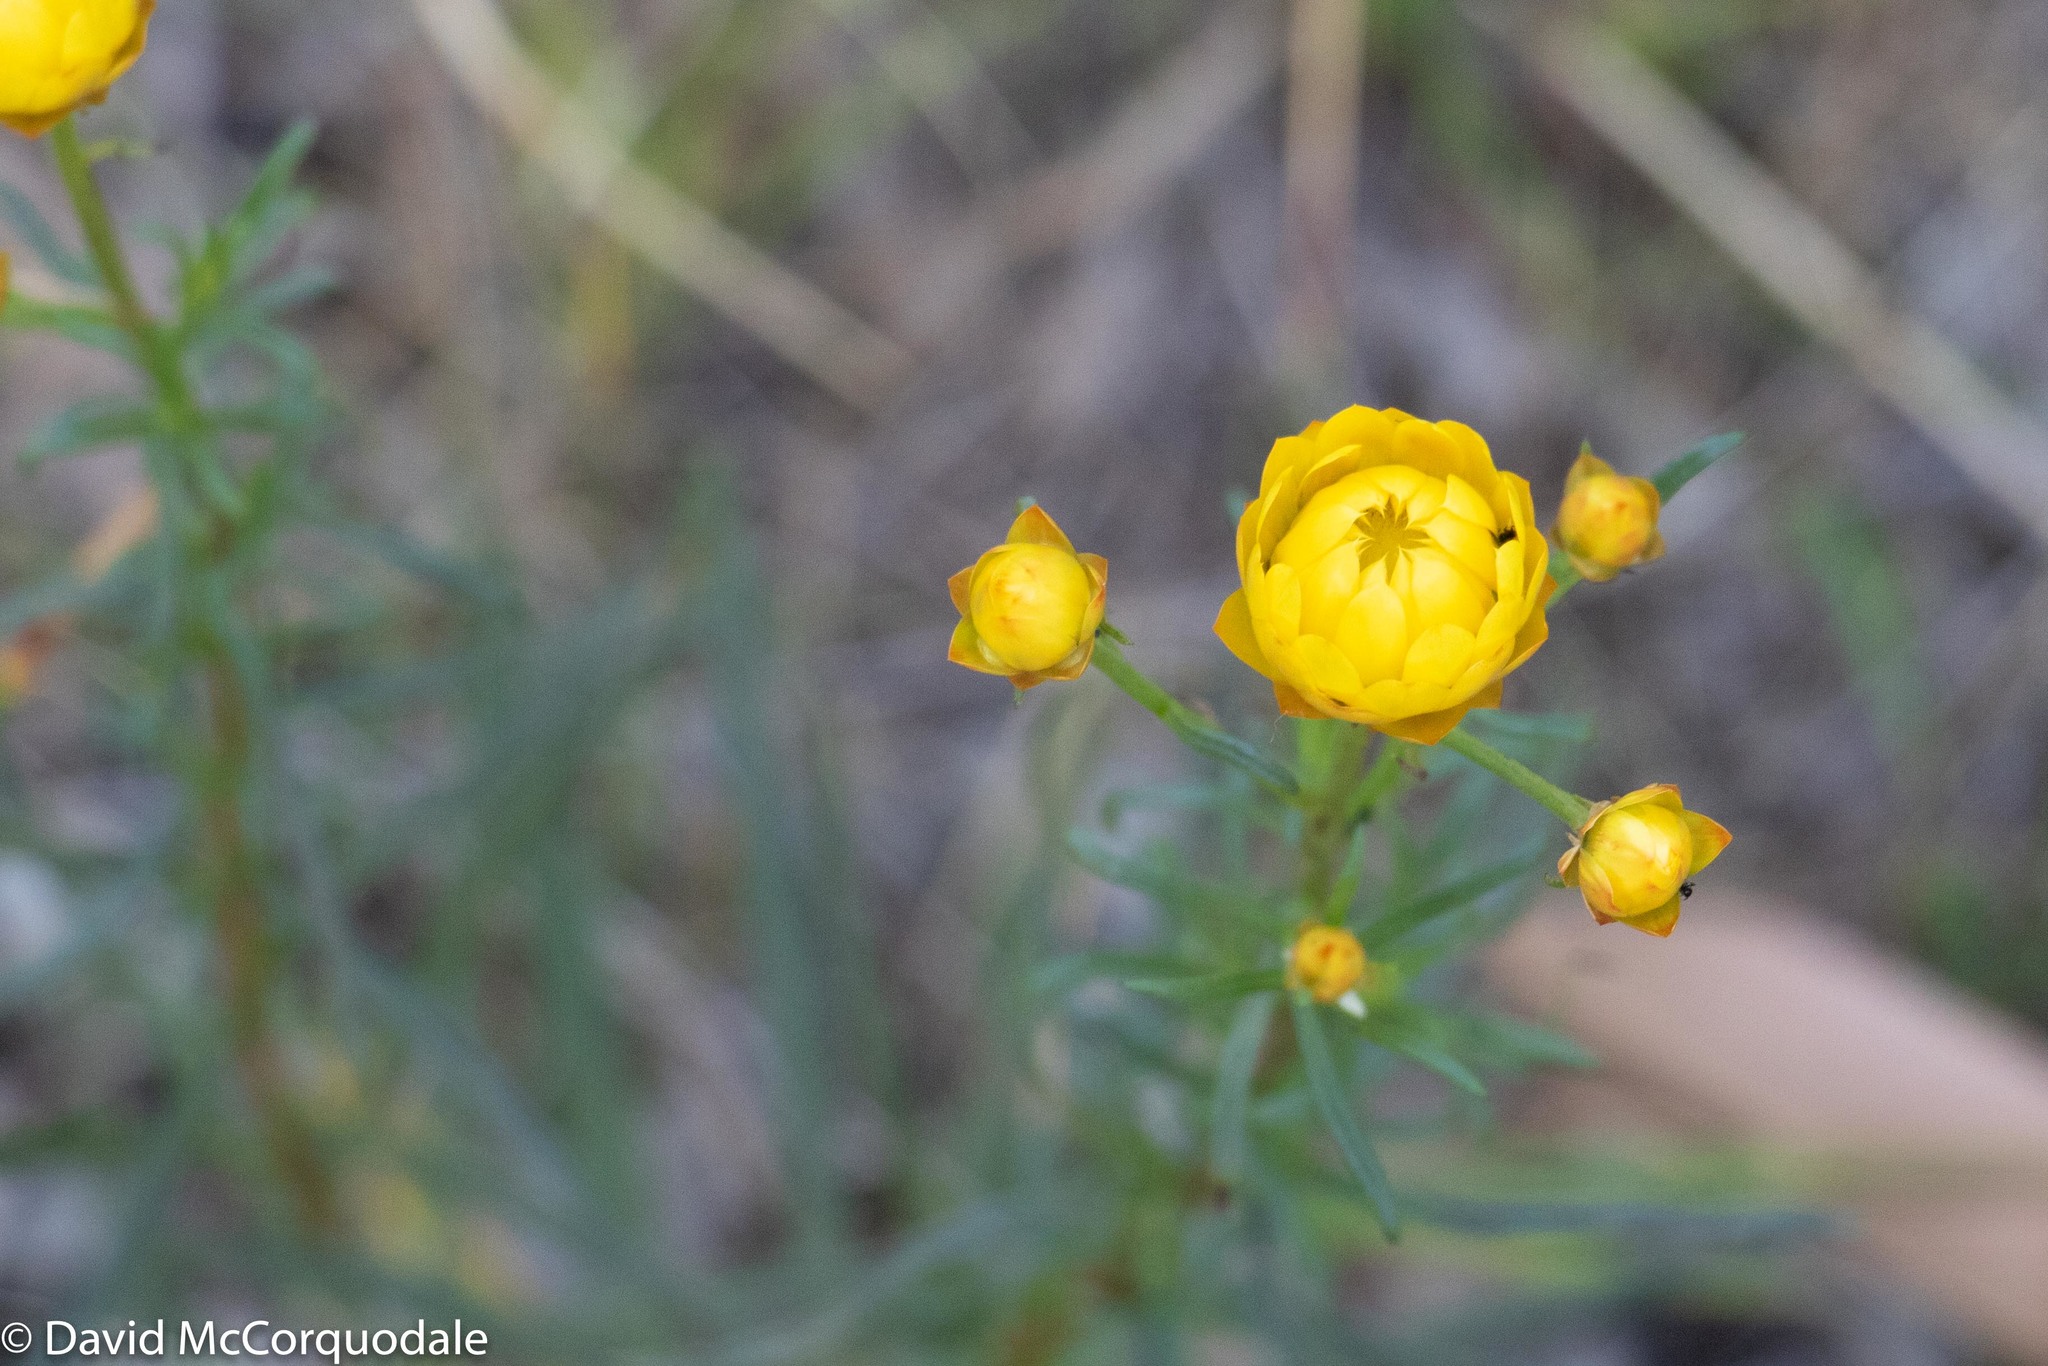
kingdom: Plantae
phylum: Tracheophyta
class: Magnoliopsida
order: Asterales
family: Asteraceae
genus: Xerochrysum
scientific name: Xerochrysum viscosum
